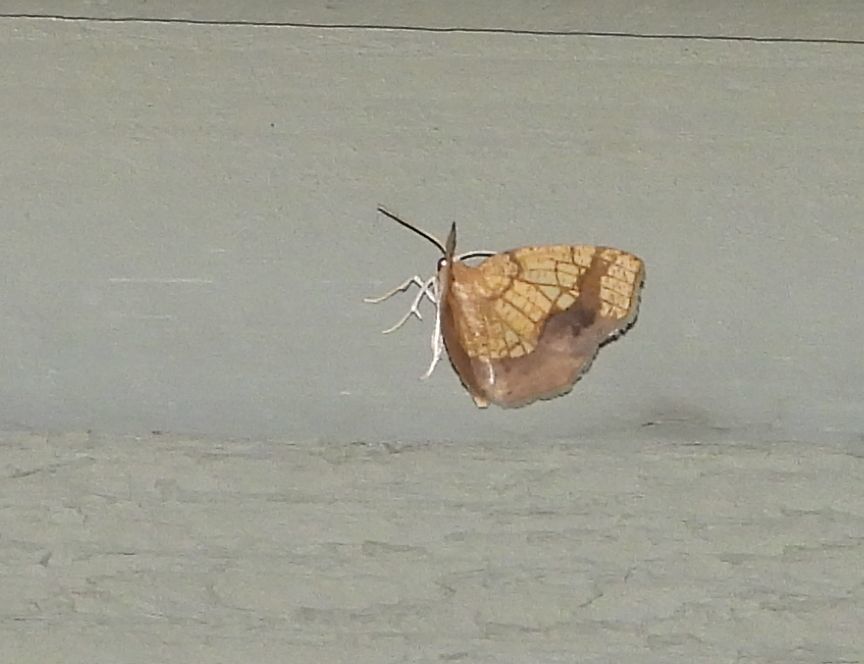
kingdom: Animalia
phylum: Arthropoda
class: Insecta
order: Lepidoptera
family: Geometridae
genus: Nematocampa
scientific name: Nematocampa resistaria
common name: Horned spanworm moth
